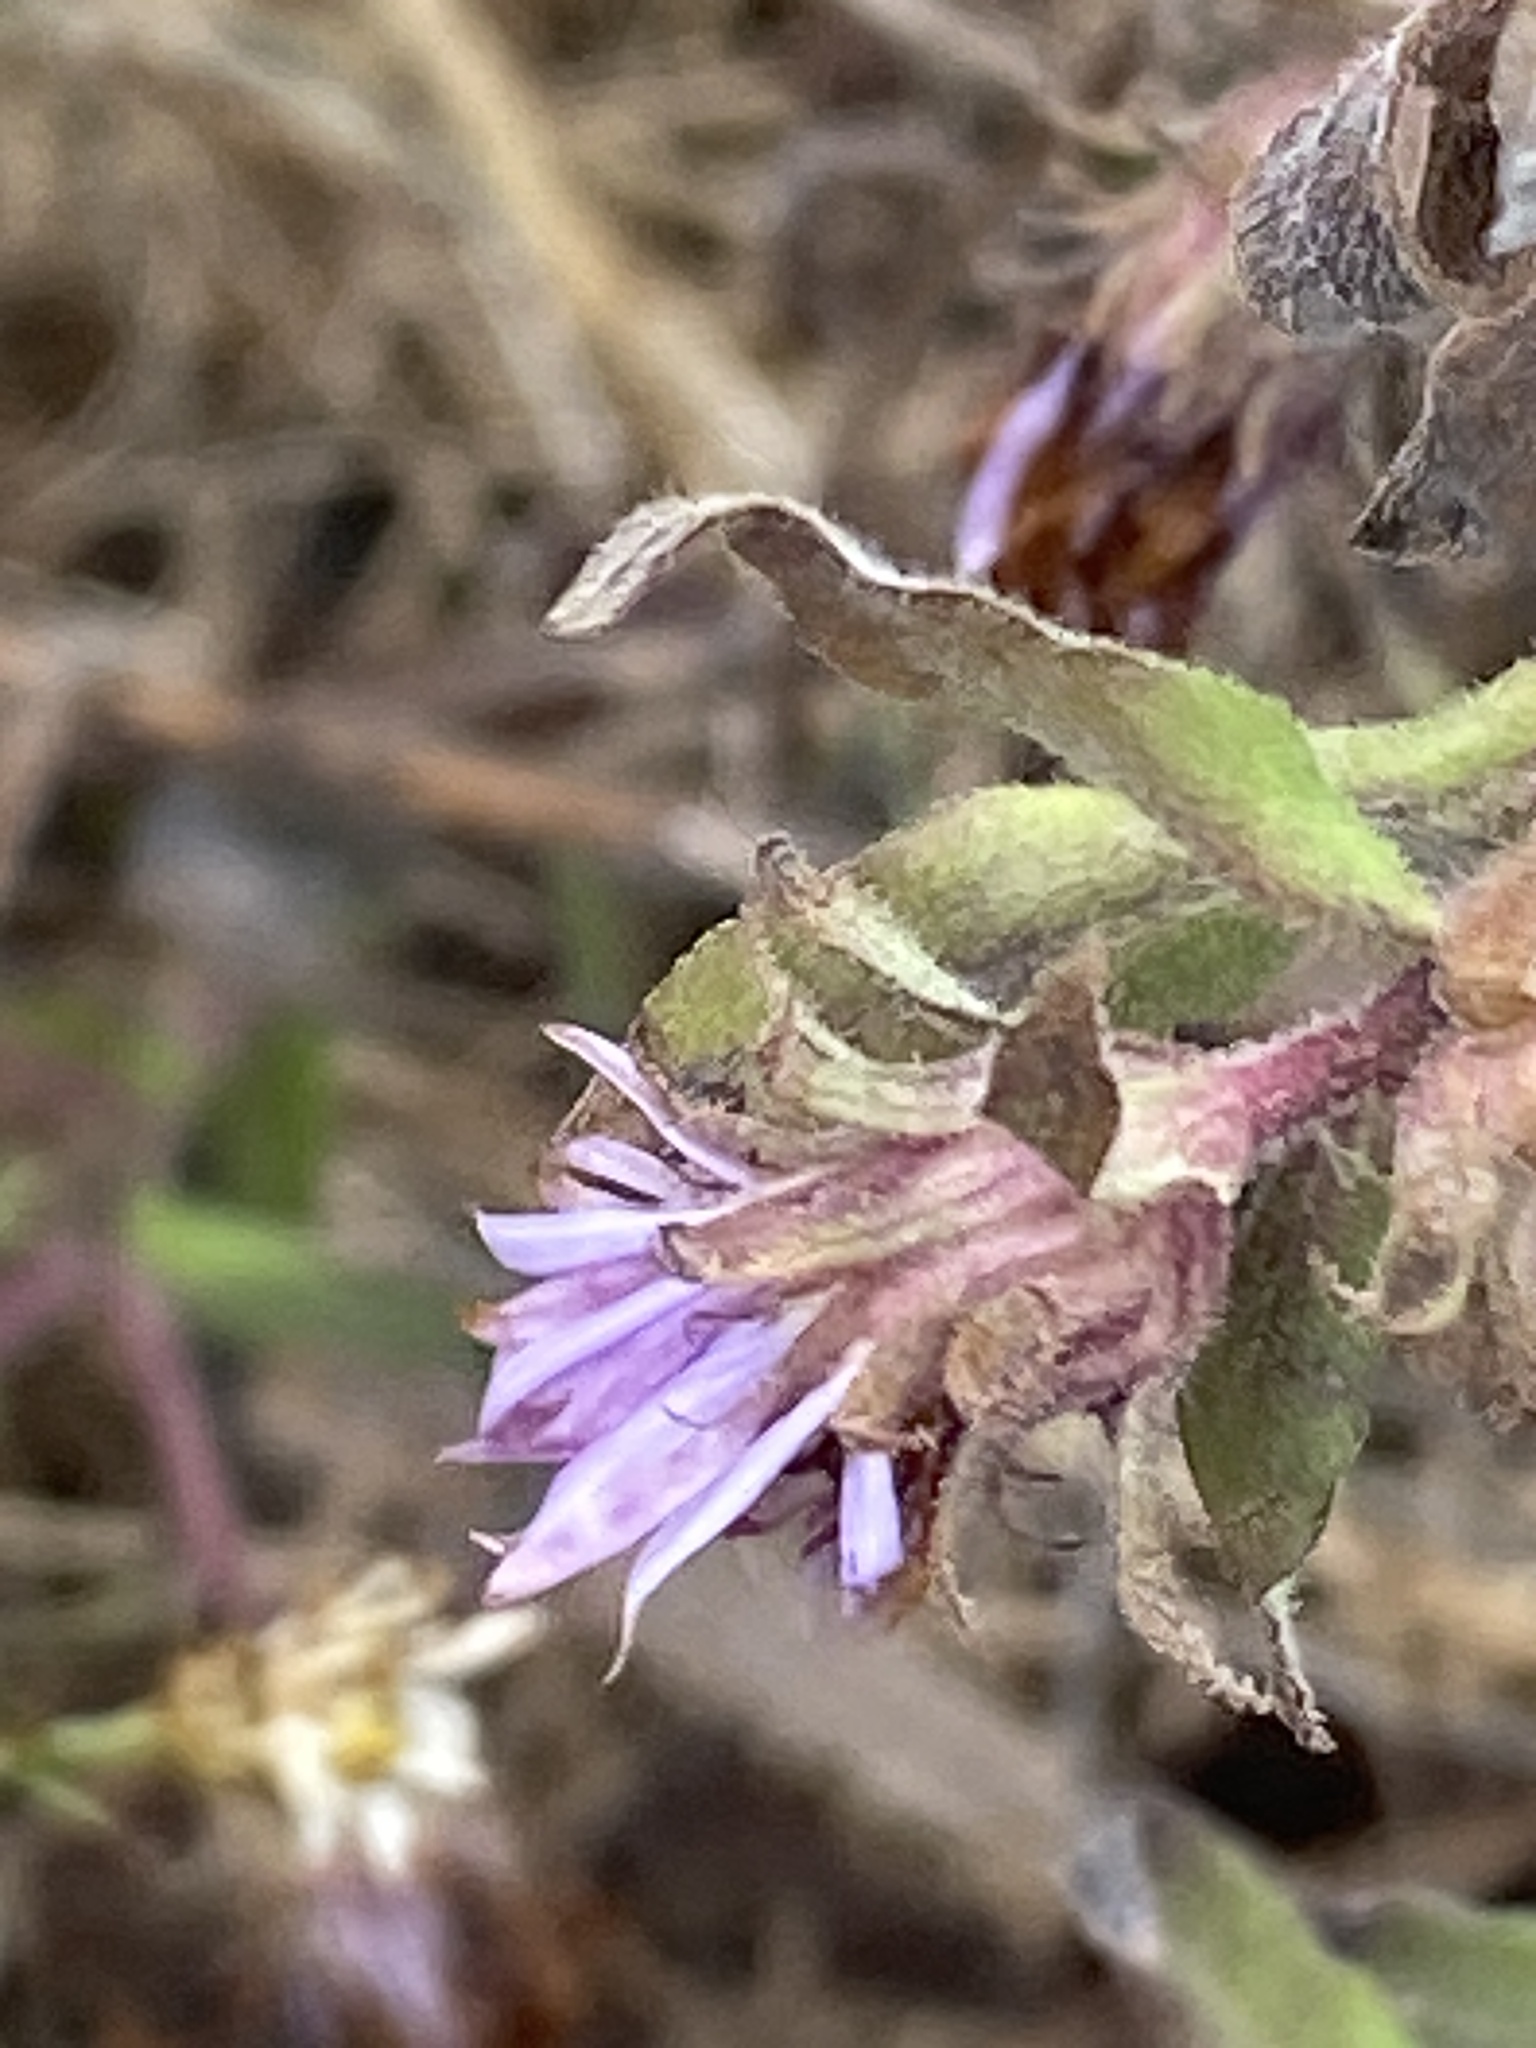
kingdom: Plantae
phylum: Tracheophyta
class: Magnoliopsida
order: Asterales
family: Asteraceae
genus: Symphyotrichum
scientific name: Symphyotrichum novae-angliae
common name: Michaelmas daisy
